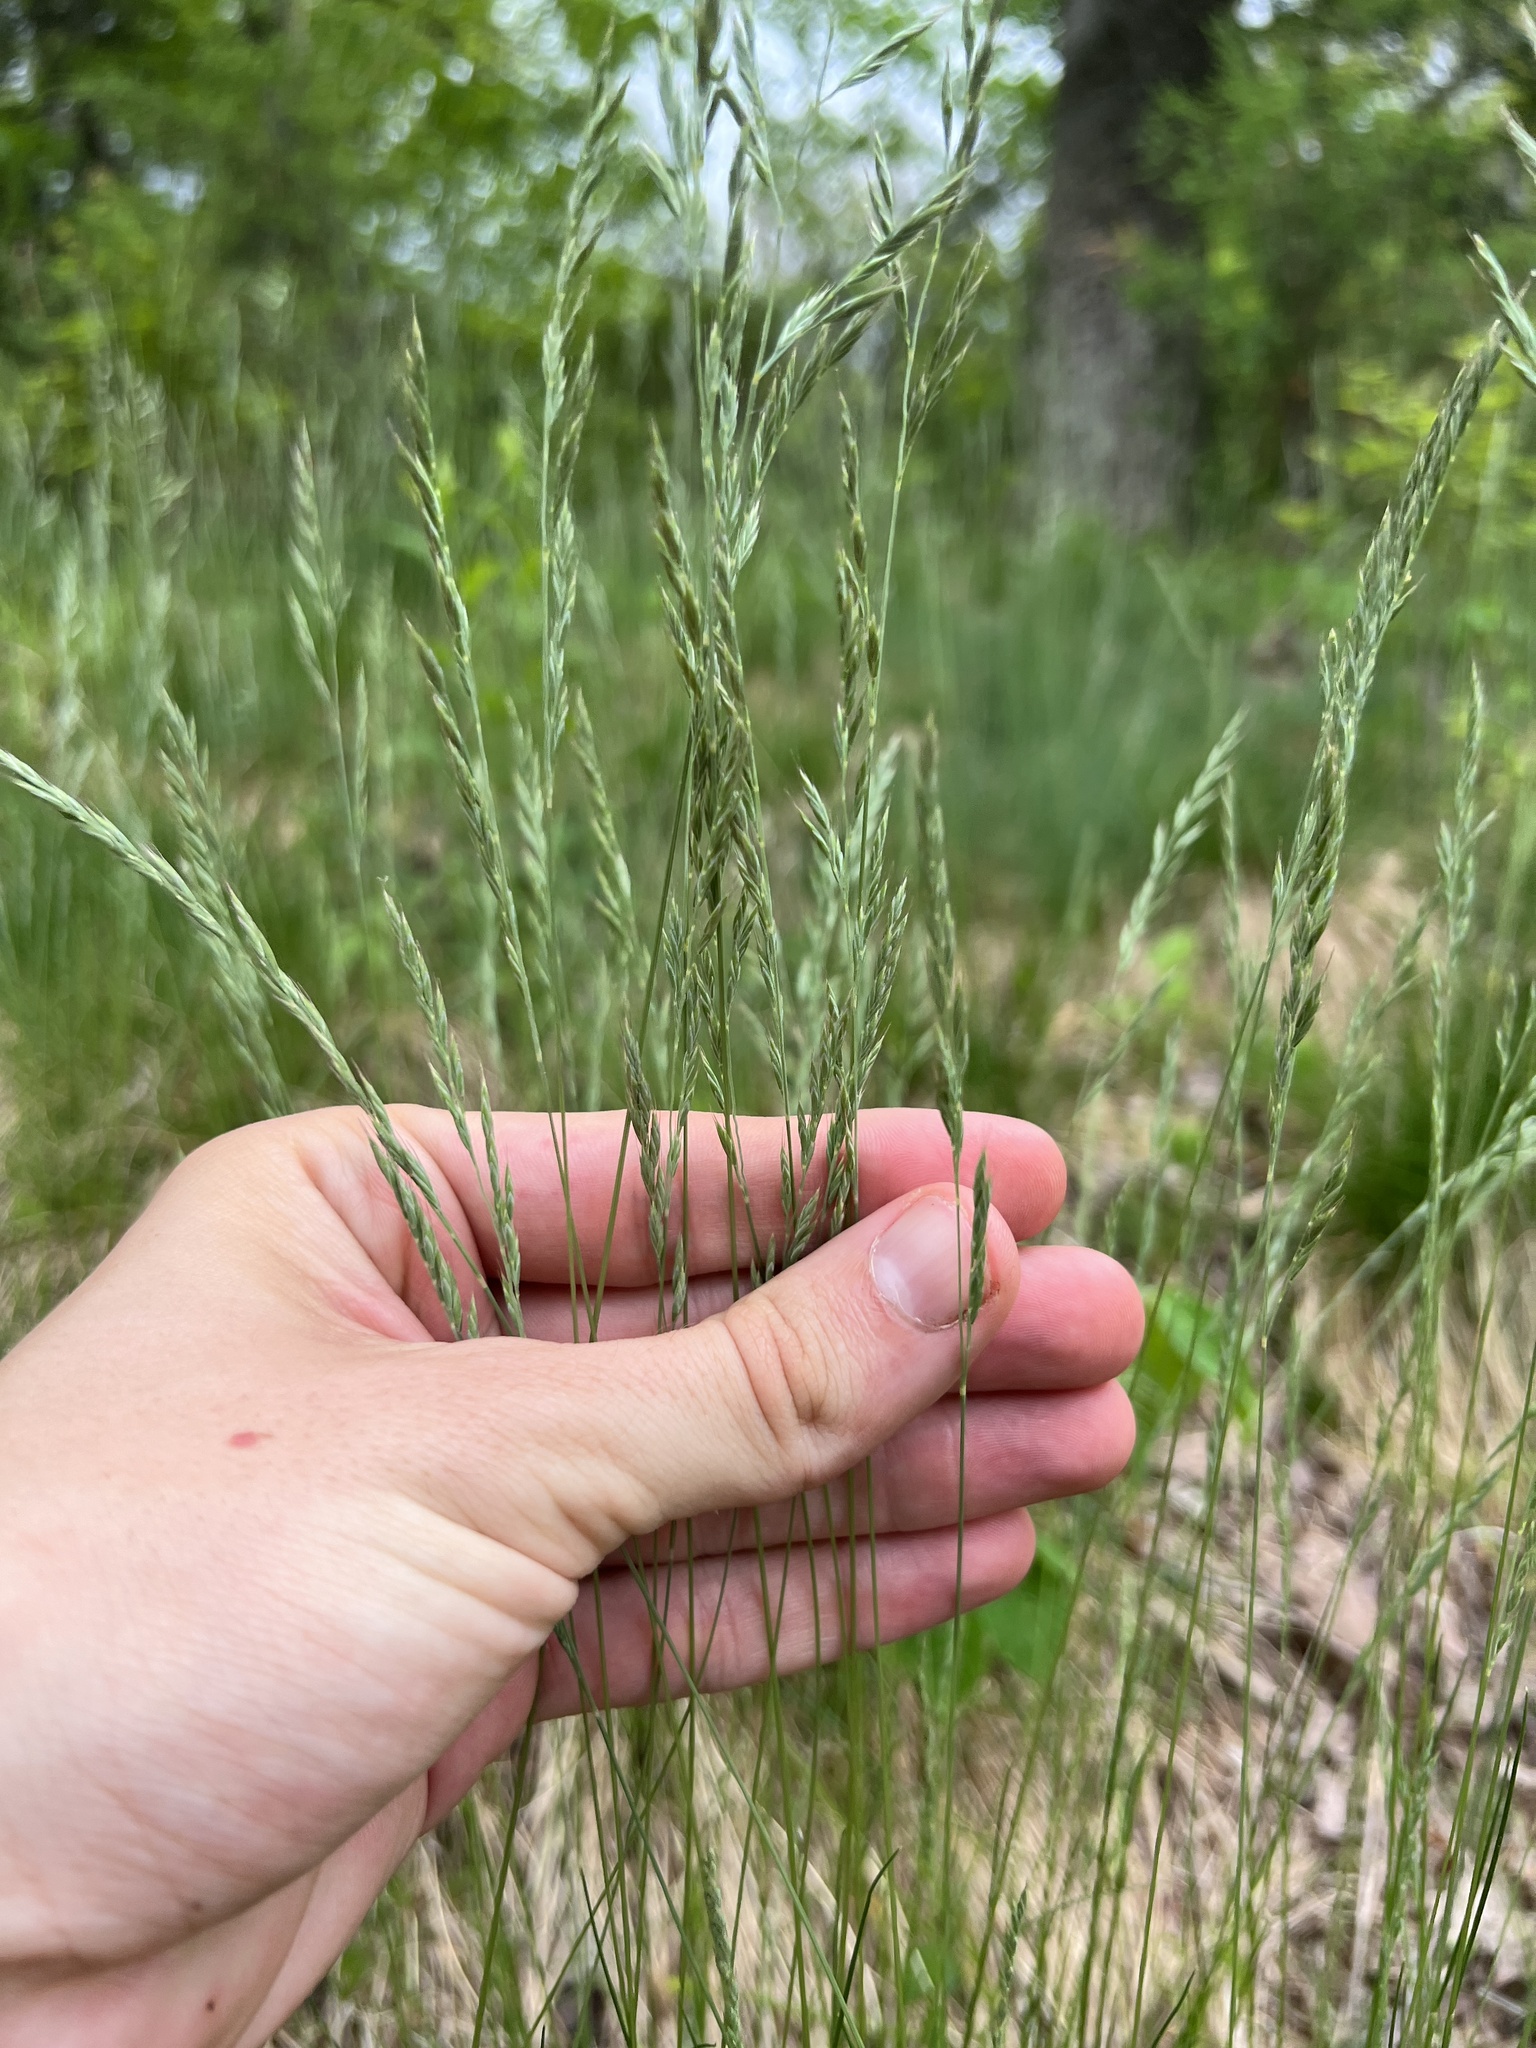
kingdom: Plantae
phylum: Tracheophyta
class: Liliopsida
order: Poales
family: Poaceae
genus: Festuca
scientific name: Festuca rubra
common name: Red fescue
